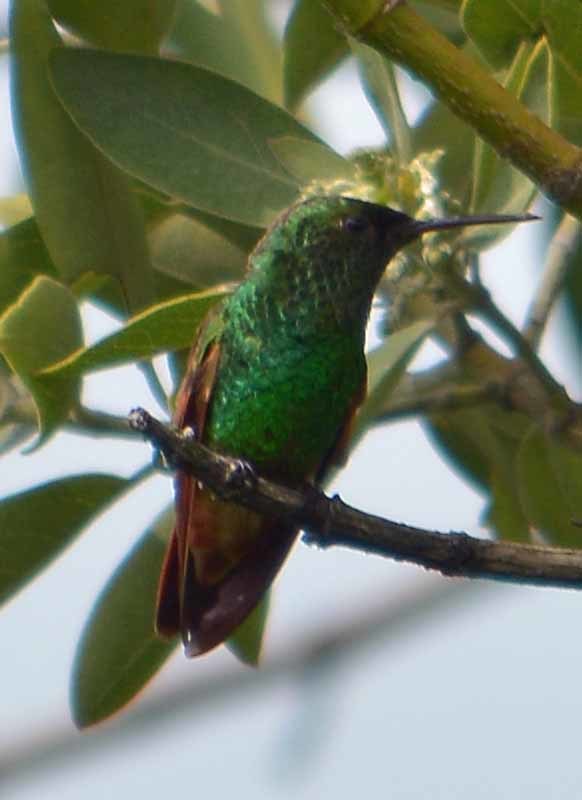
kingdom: Animalia
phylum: Chordata
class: Aves
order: Apodiformes
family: Trochilidae
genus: Saucerottia
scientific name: Saucerottia beryllina
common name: Berylline hummingbird
